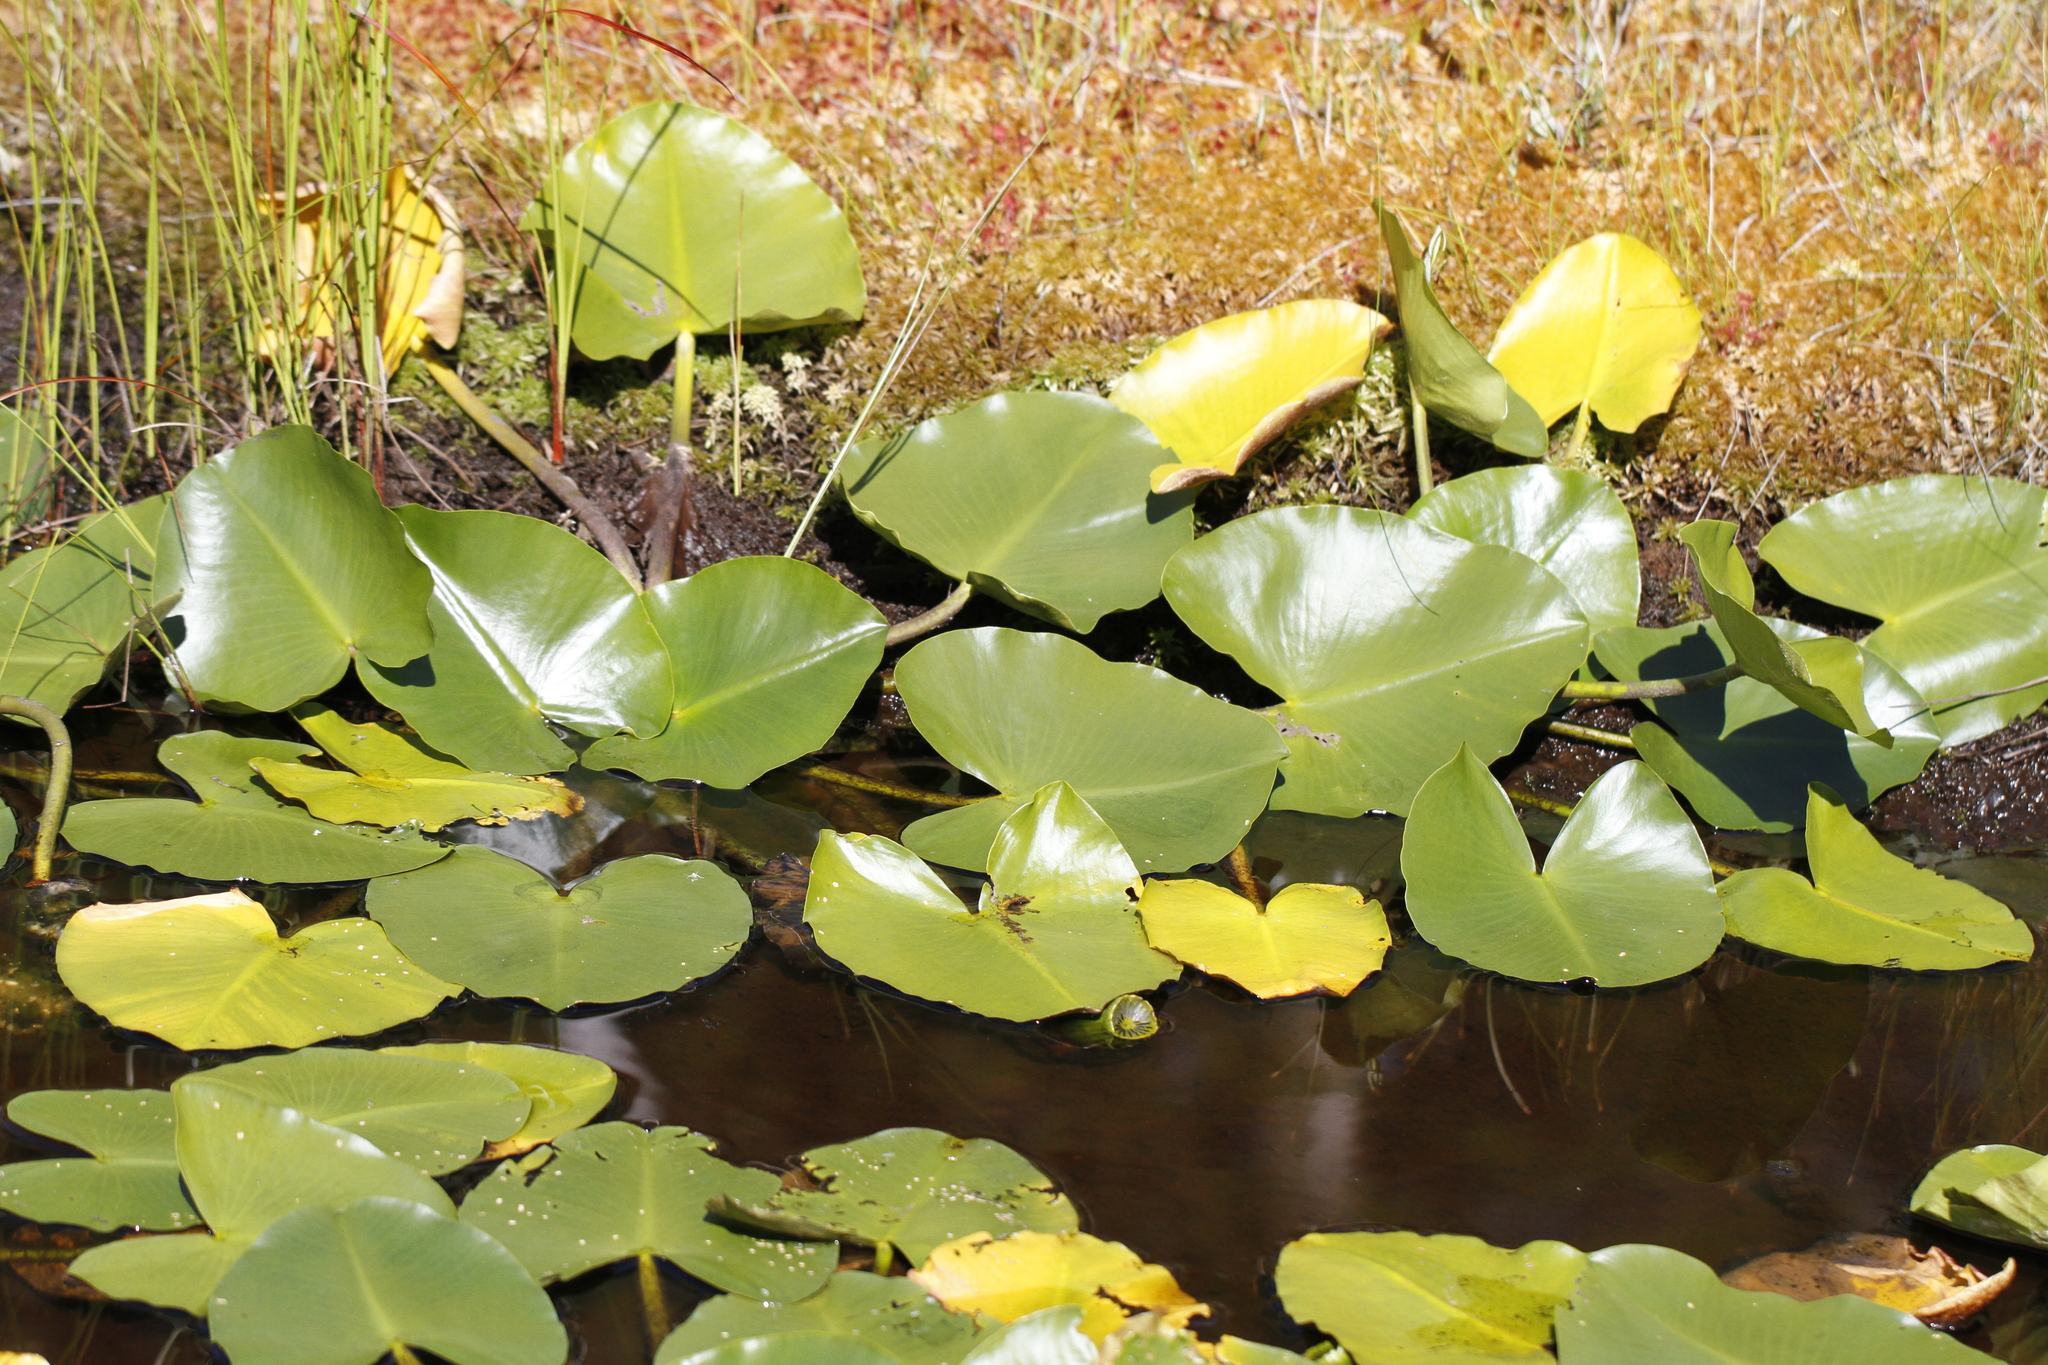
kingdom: Plantae
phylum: Tracheophyta
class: Magnoliopsida
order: Nymphaeales
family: Nymphaeaceae
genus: Nuphar
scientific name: Nuphar polysepala
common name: Rocky mountain cow-lily
